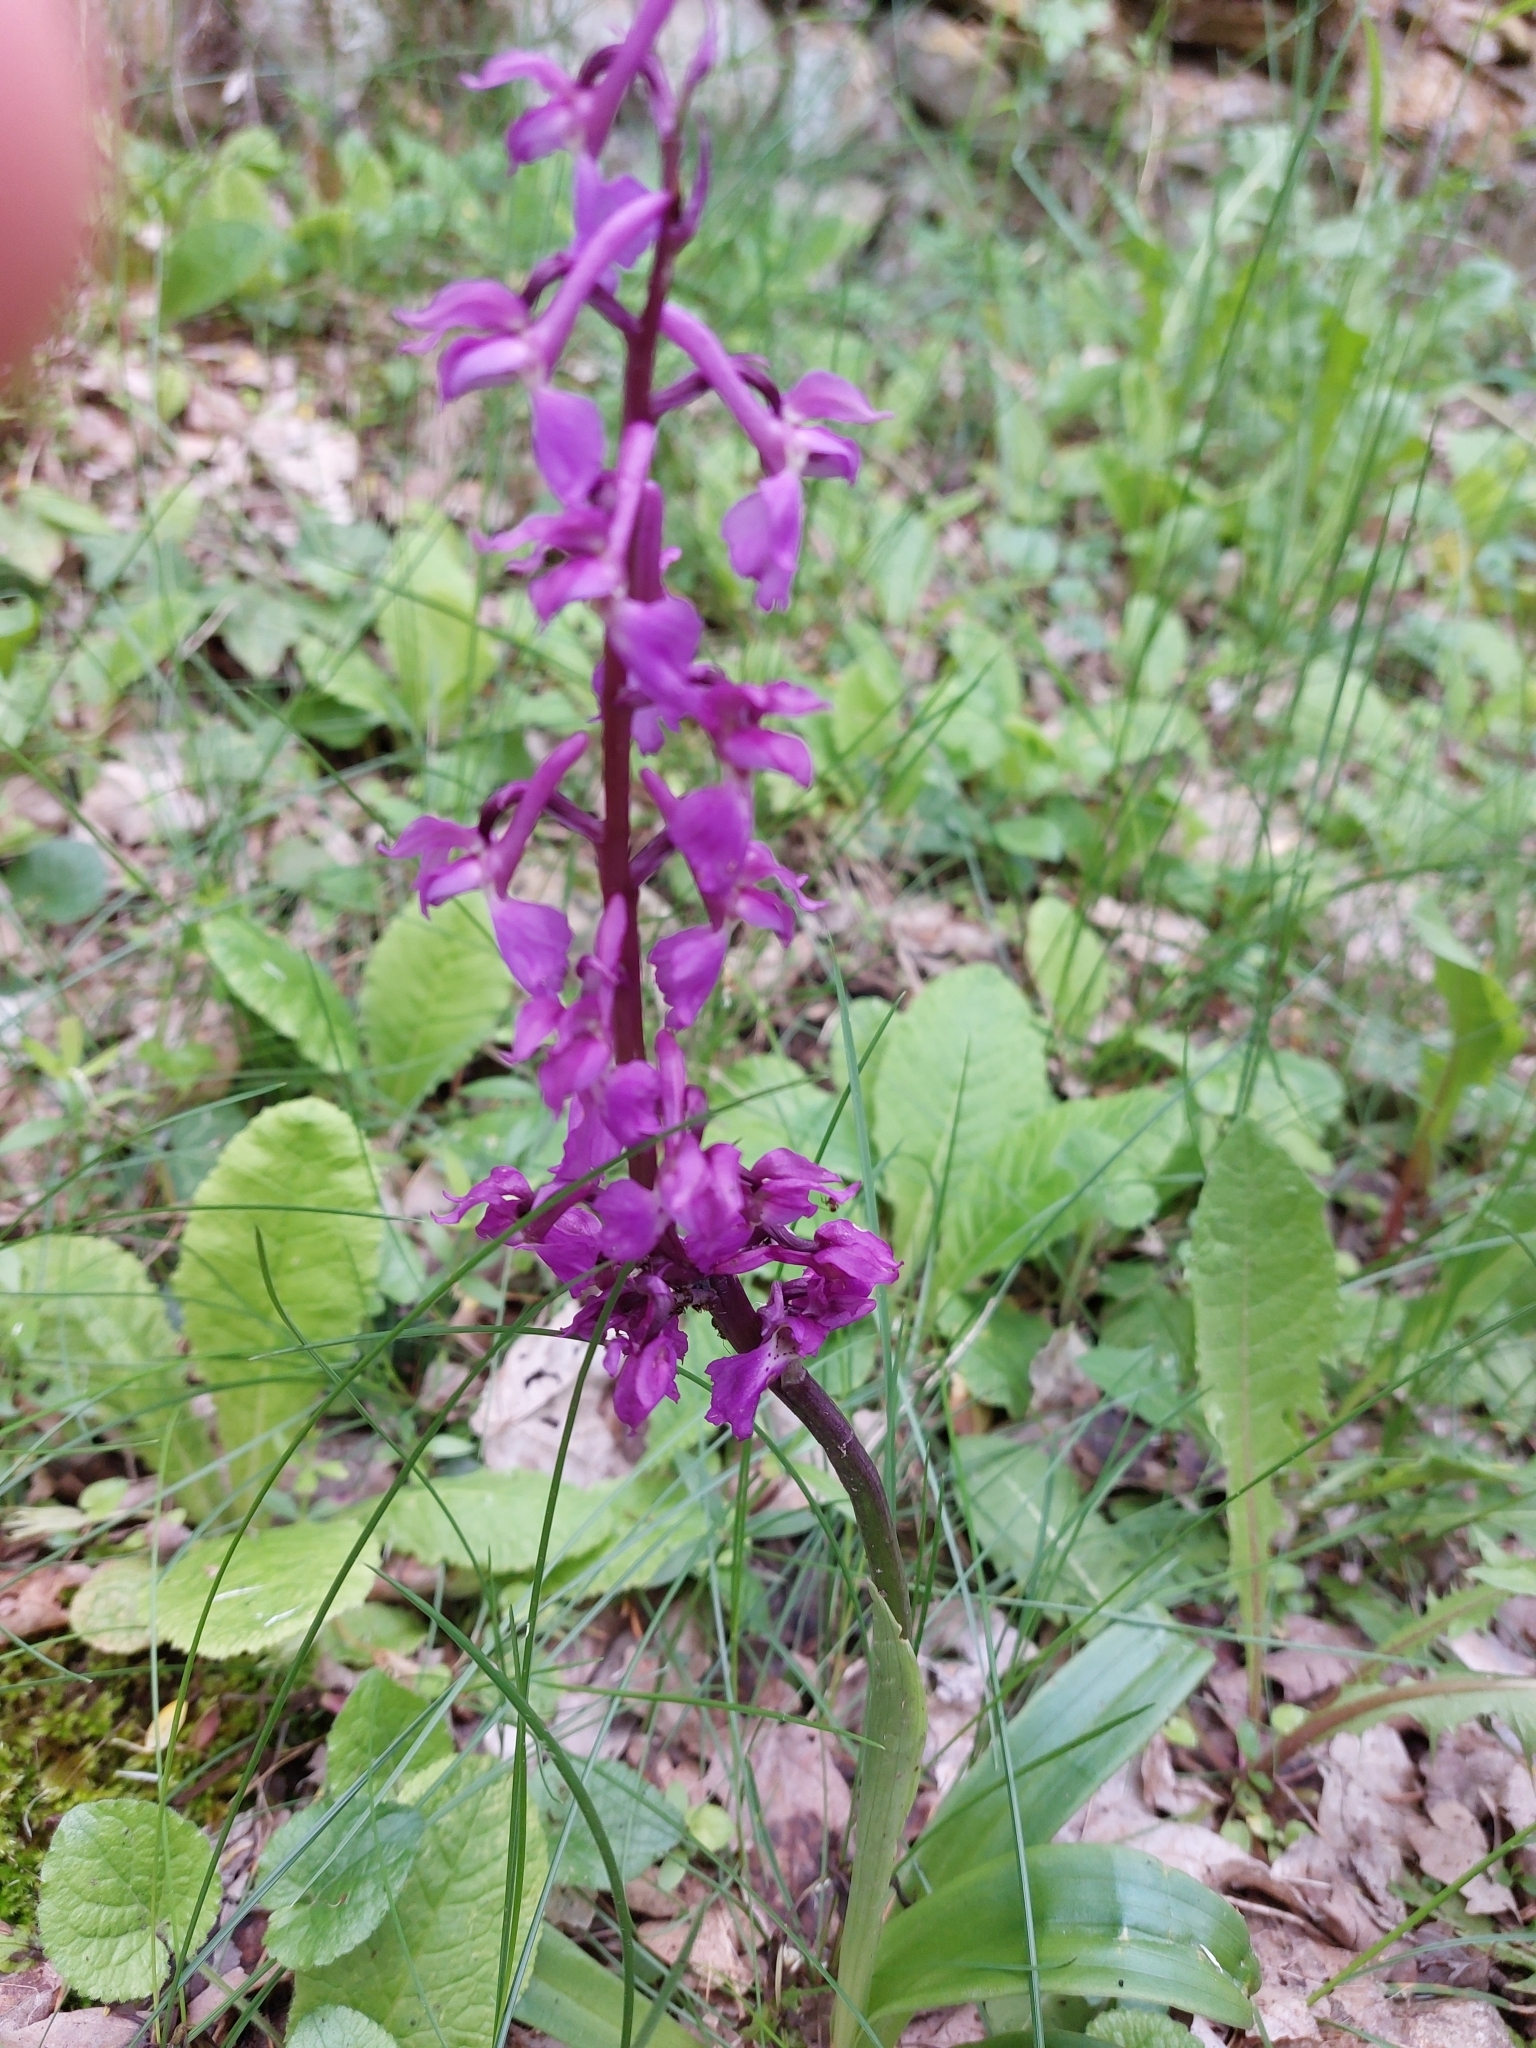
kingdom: Plantae
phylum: Tracheophyta
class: Liliopsida
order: Asparagales
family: Orchidaceae
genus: Orchis
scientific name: Orchis mascula
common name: Early-purple orchid
